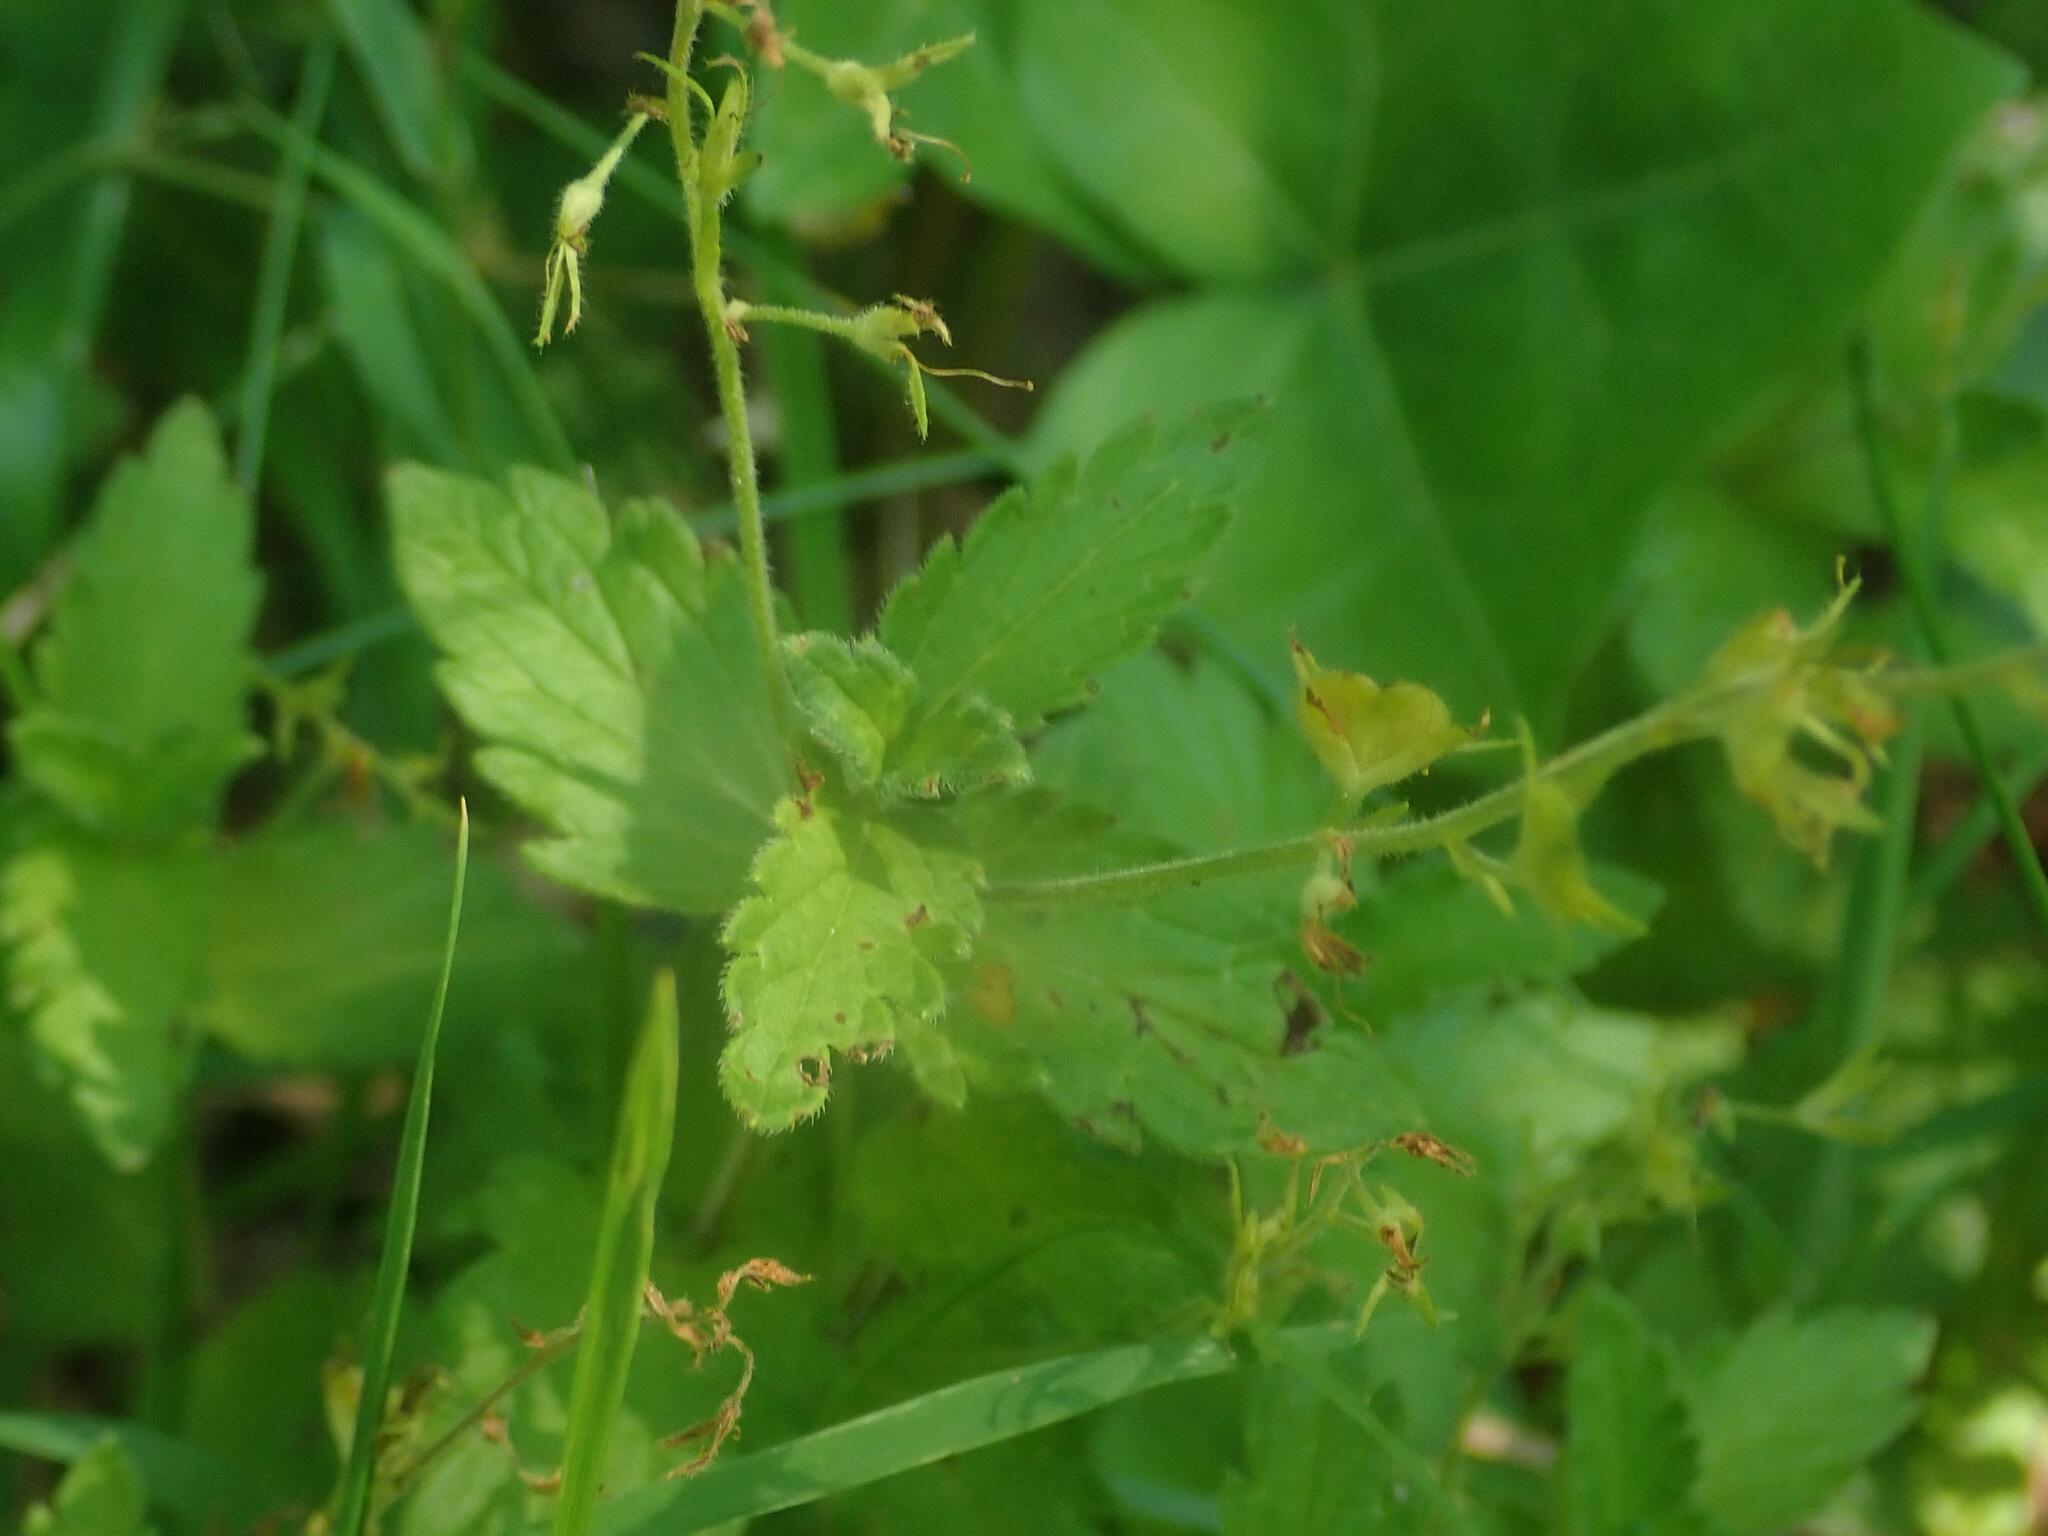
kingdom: Plantae
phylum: Tracheophyta
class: Magnoliopsida
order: Lamiales
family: Plantaginaceae
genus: Veronica
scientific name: Veronica chamaedrys
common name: Germander speedwell
